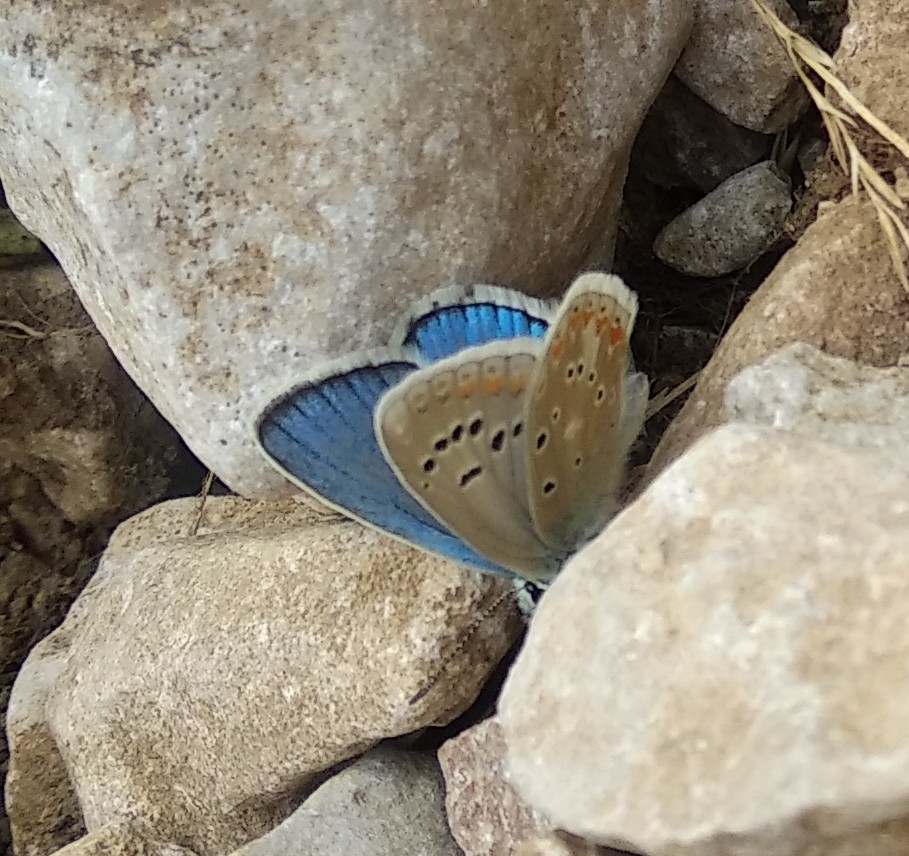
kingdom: Animalia
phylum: Arthropoda
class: Insecta
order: Lepidoptera
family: Lycaenidae
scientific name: Lycaenidae
